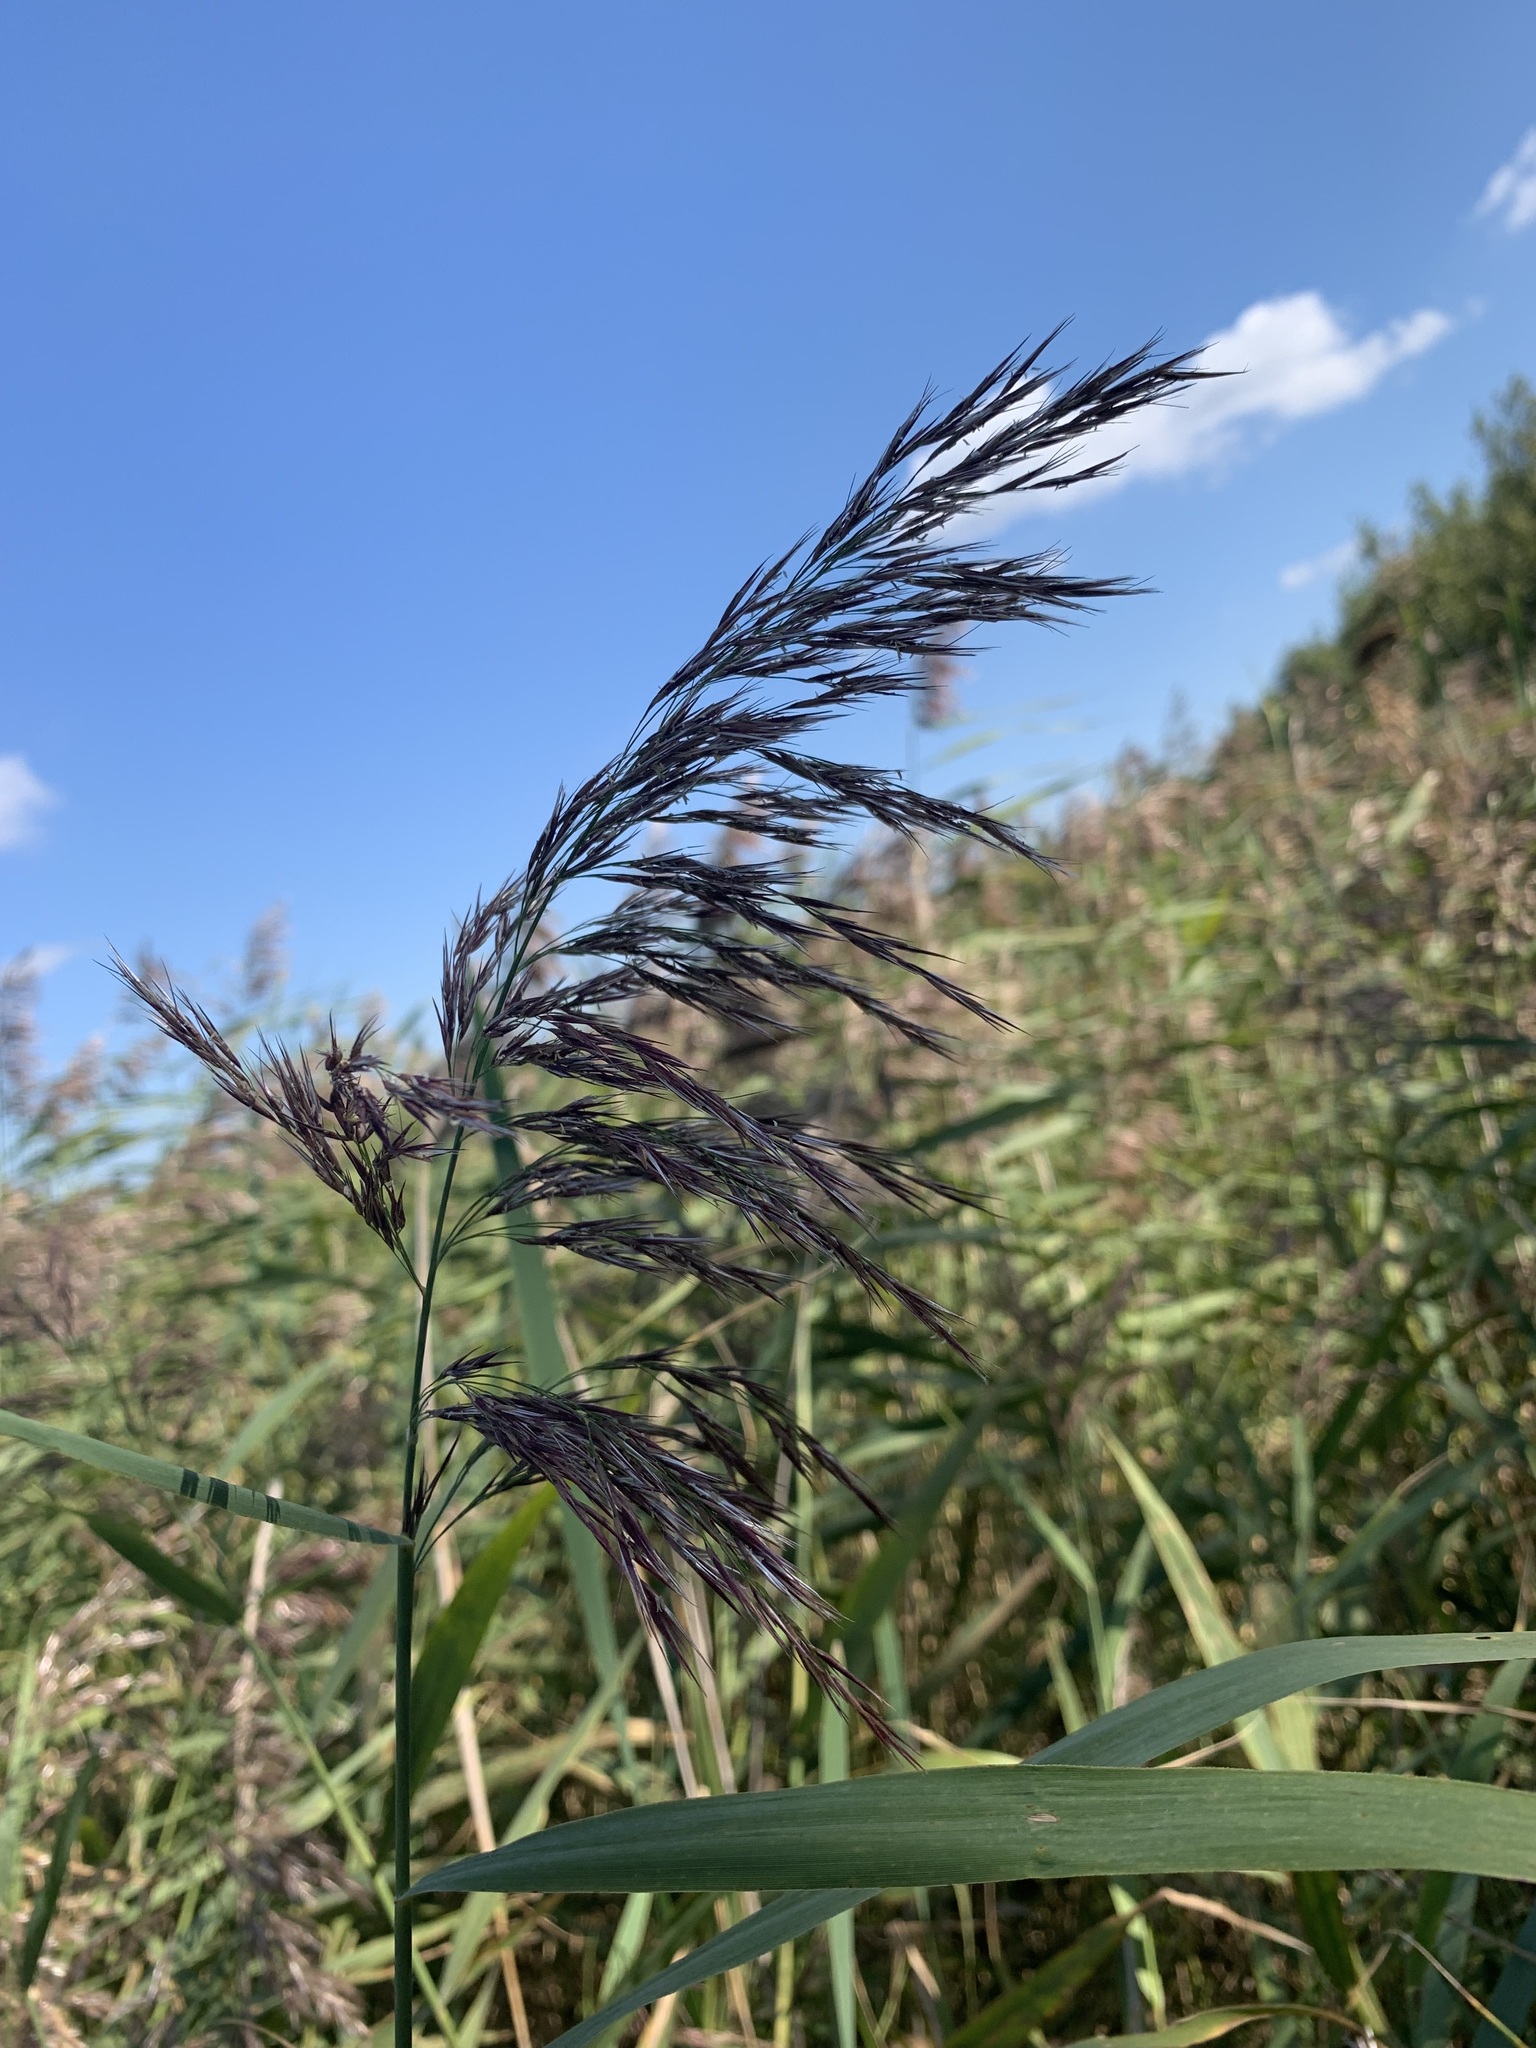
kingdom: Plantae
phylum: Tracheophyta
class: Liliopsida
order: Poales
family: Poaceae
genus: Phragmites
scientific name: Phragmites australis
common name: Common reed
